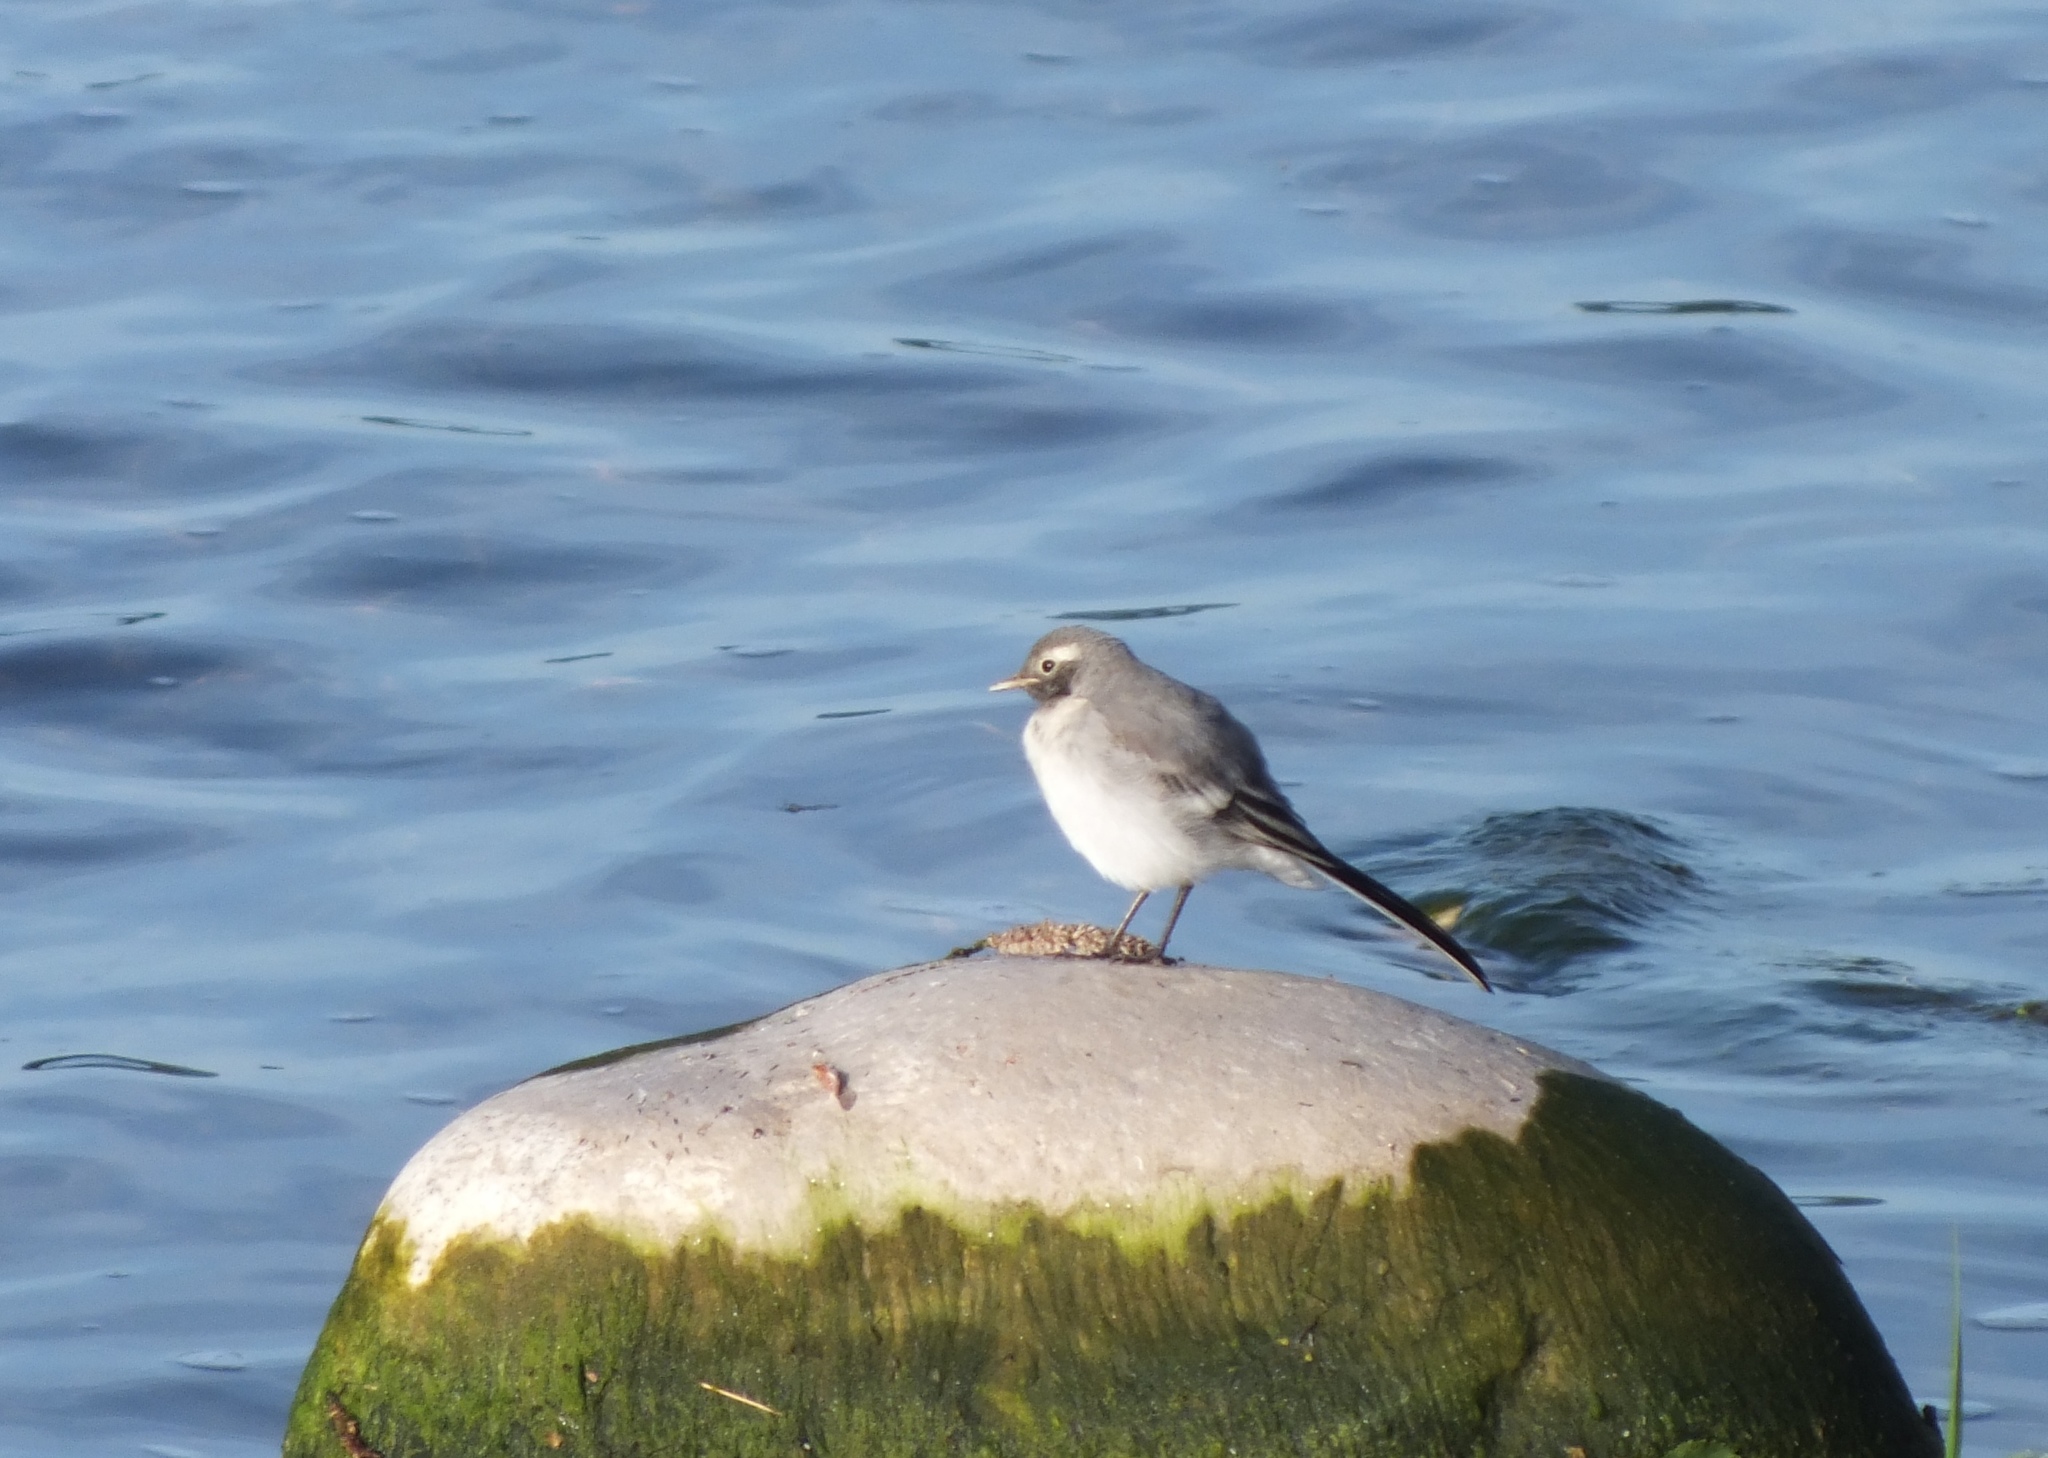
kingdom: Animalia
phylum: Chordata
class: Aves
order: Passeriformes
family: Motacillidae
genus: Motacilla
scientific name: Motacilla alba
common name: White wagtail
